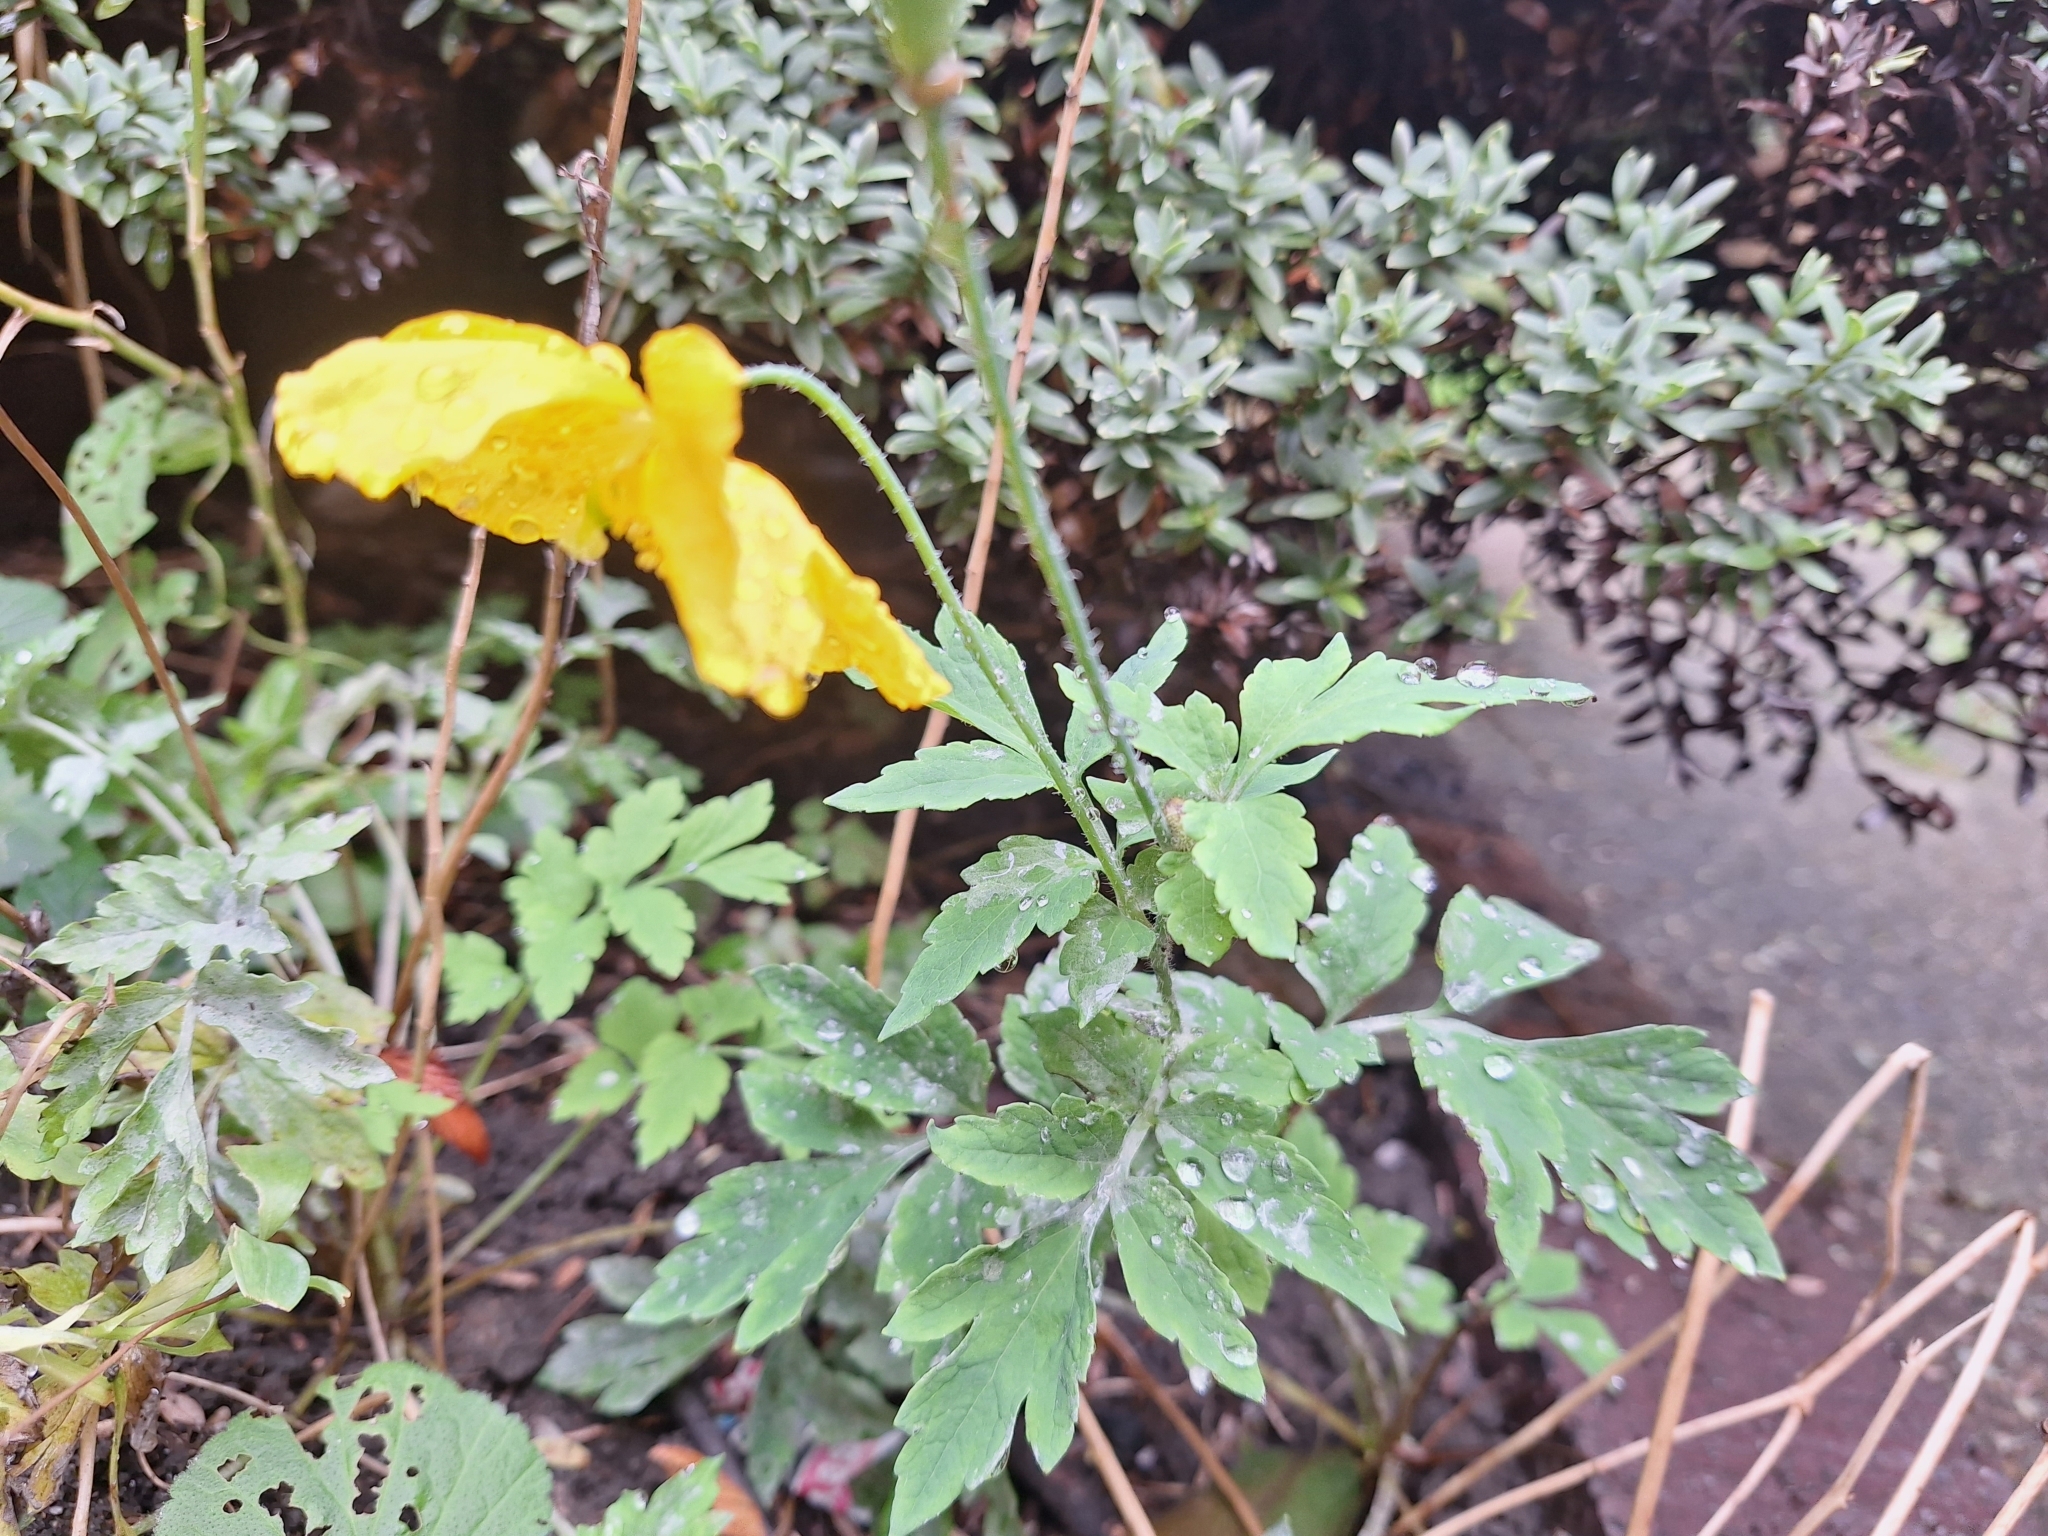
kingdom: Plantae
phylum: Tracheophyta
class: Magnoliopsida
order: Ranunculales
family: Papaveraceae
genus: Papaver
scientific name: Papaver cambricum
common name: Poppy
